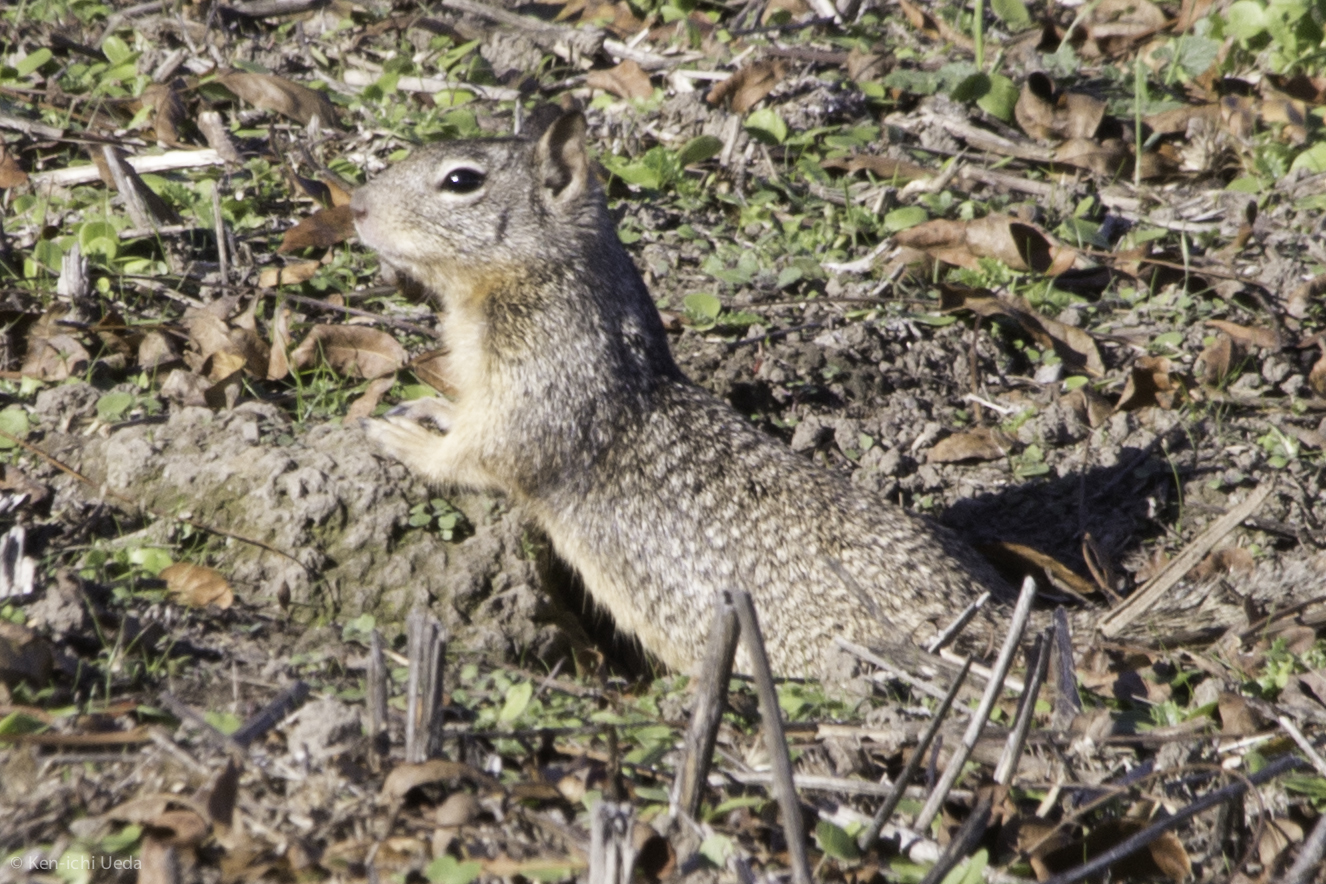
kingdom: Animalia
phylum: Chordata
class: Mammalia
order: Rodentia
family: Sciuridae
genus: Otospermophilus
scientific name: Otospermophilus beecheyi
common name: California ground squirrel
